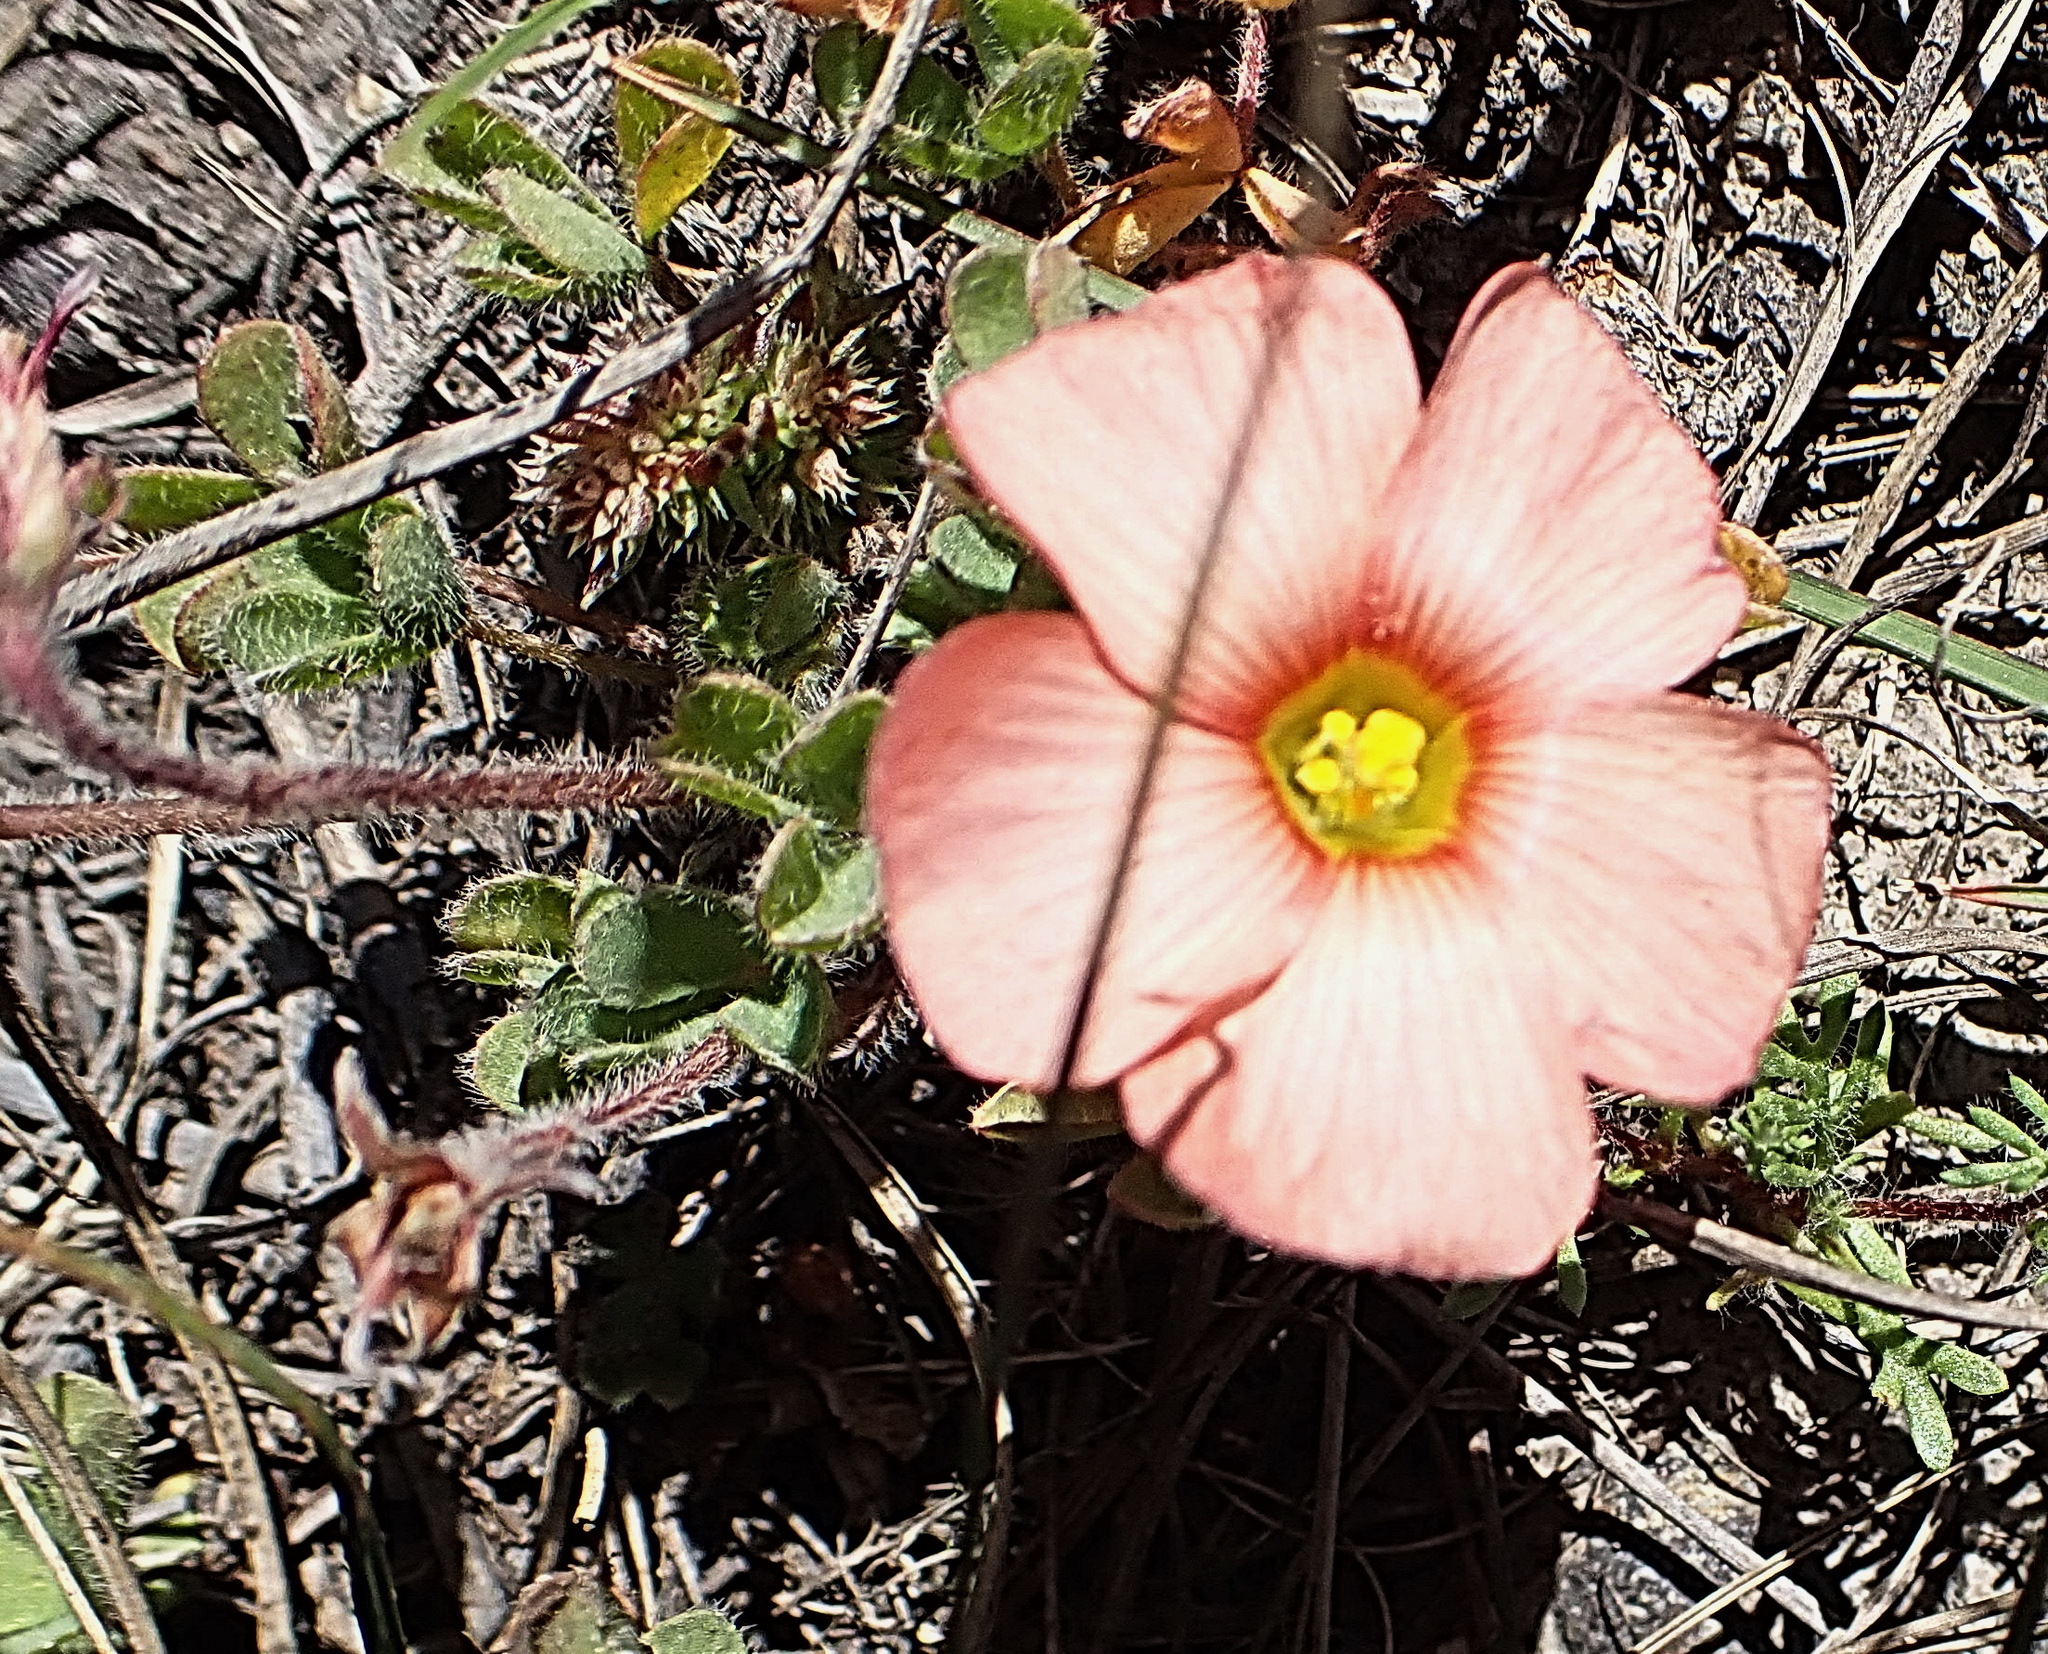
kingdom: Plantae
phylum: Tracheophyta
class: Magnoliopsida
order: Oxalidales
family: Oxalidaceae
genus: Oxalis
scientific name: Oxalis obtusa
